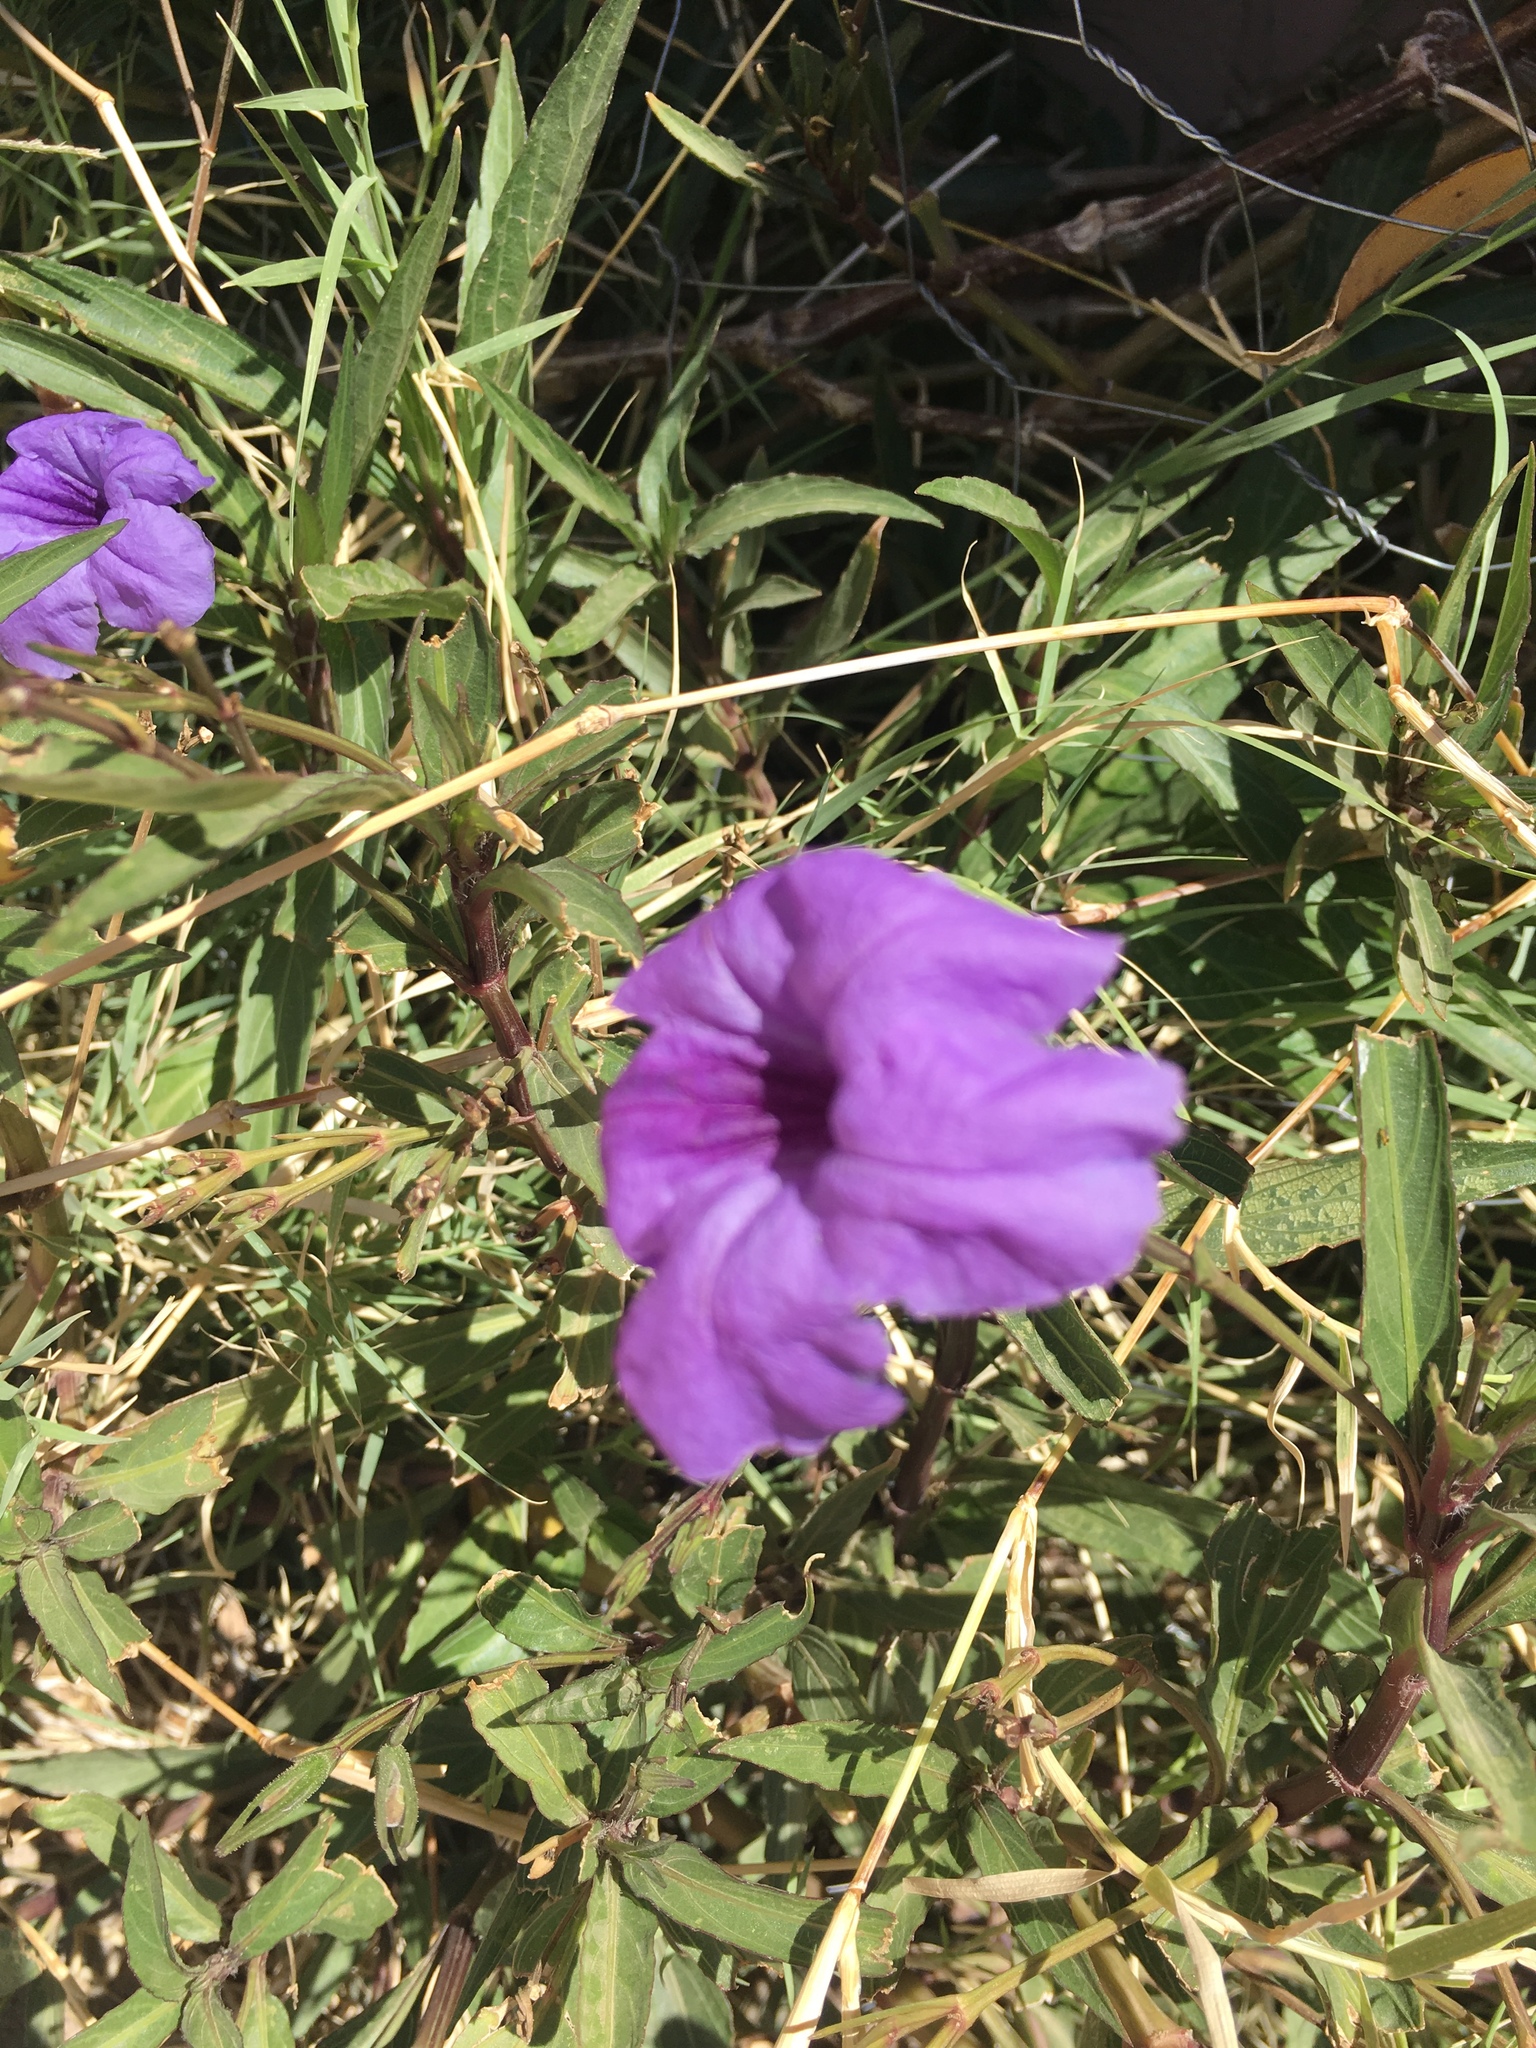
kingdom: Plantae
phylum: Tracheophyta
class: Magnoliopsida
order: Lamiales
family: Acanthaceae
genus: Ruellia
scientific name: Ruellia simplex
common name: Softseed wild petunia
